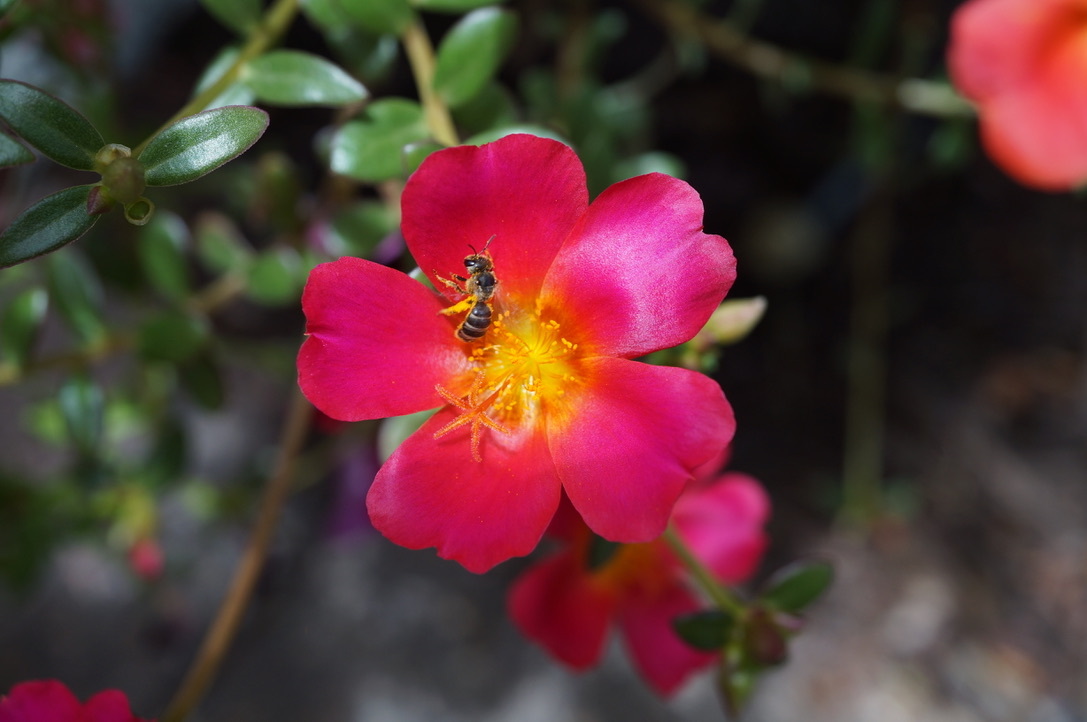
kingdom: Animalia
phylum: Arthropoda
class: Insecta
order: Hymenoptera
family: Halictidae
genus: Halictus
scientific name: Halictus ligatus
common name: Ligated furrow bee
